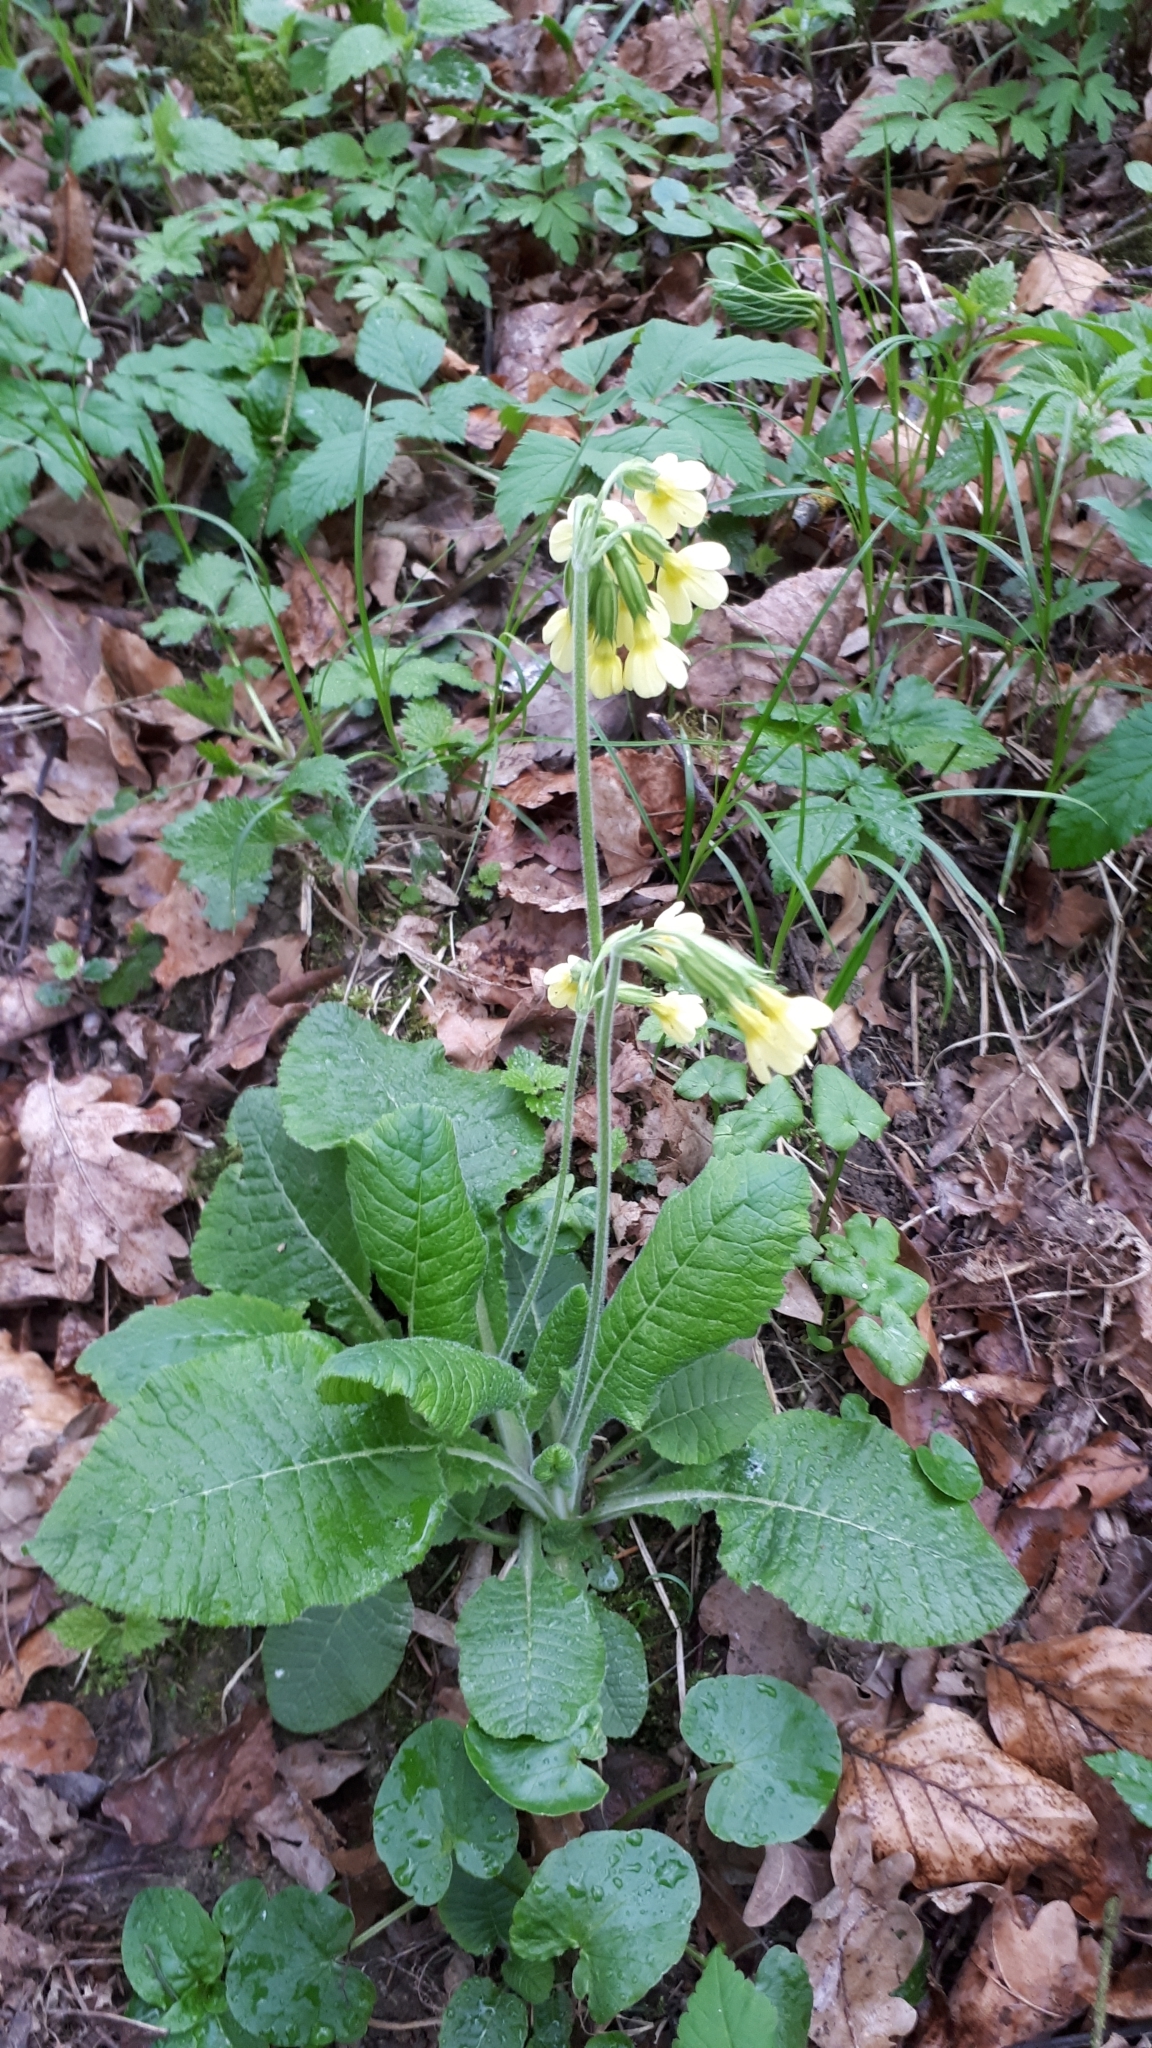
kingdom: Plantae
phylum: Tracheophyta
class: Magnoliopsida
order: Ericales
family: Primulaceae
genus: Primula
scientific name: Primula elatior
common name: Oxlip
